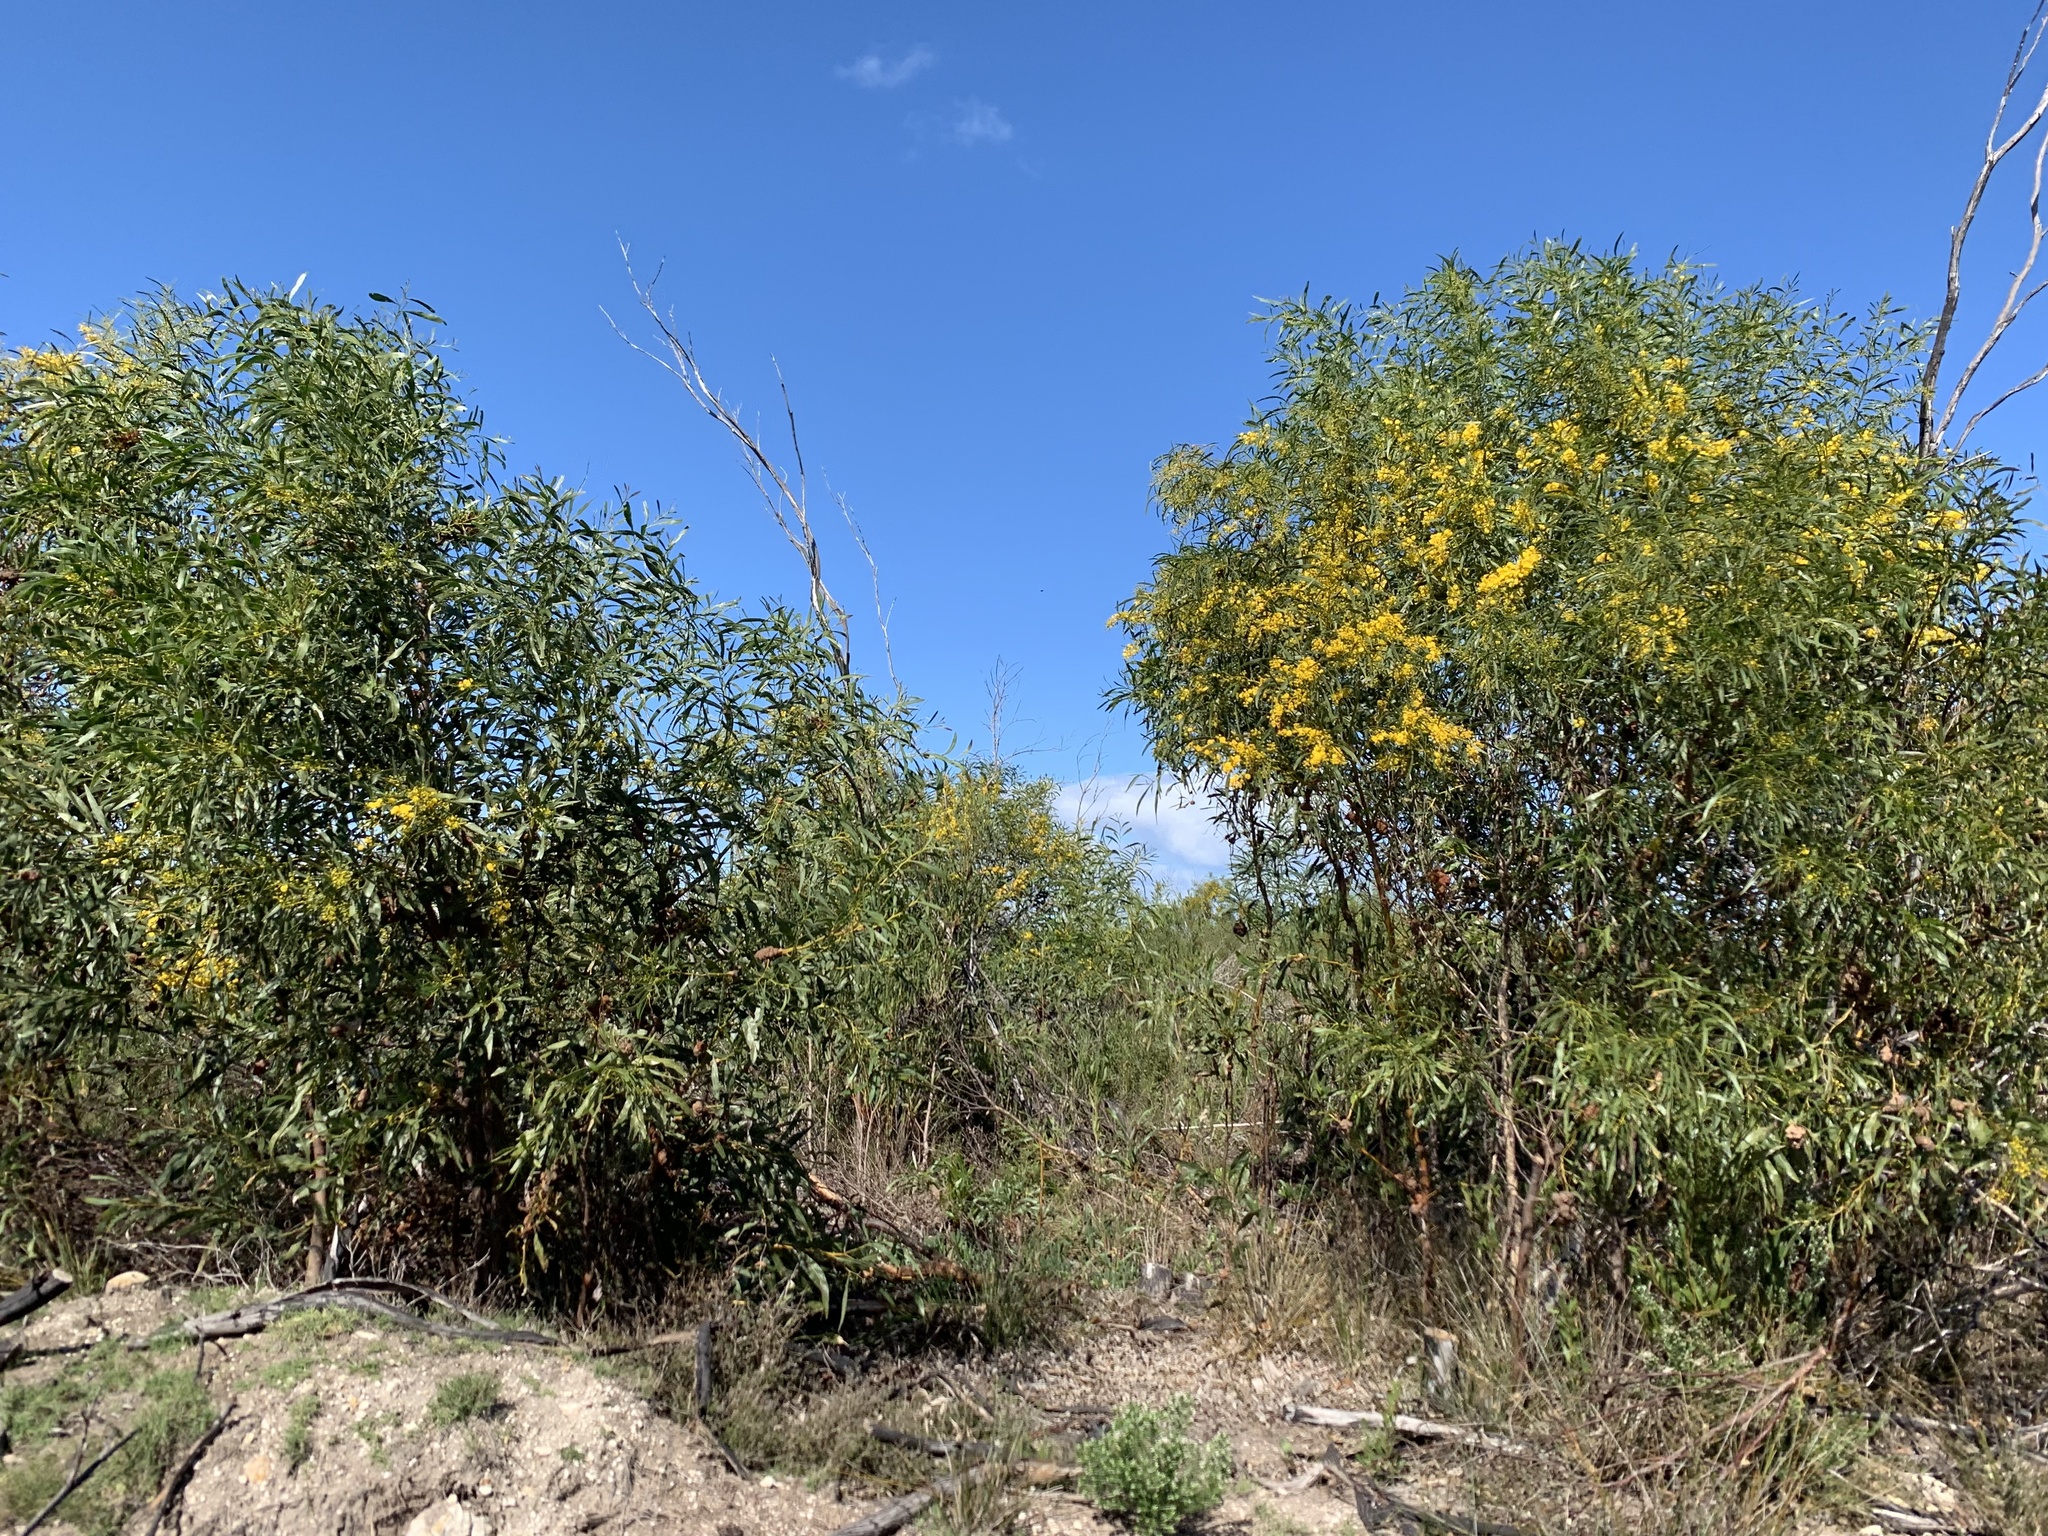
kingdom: Plantae
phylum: Tracheophyta
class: Magnoliopsida
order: Fabales
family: Fabaceae
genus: Acacia
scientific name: Acacia saligna
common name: Orange wattle
